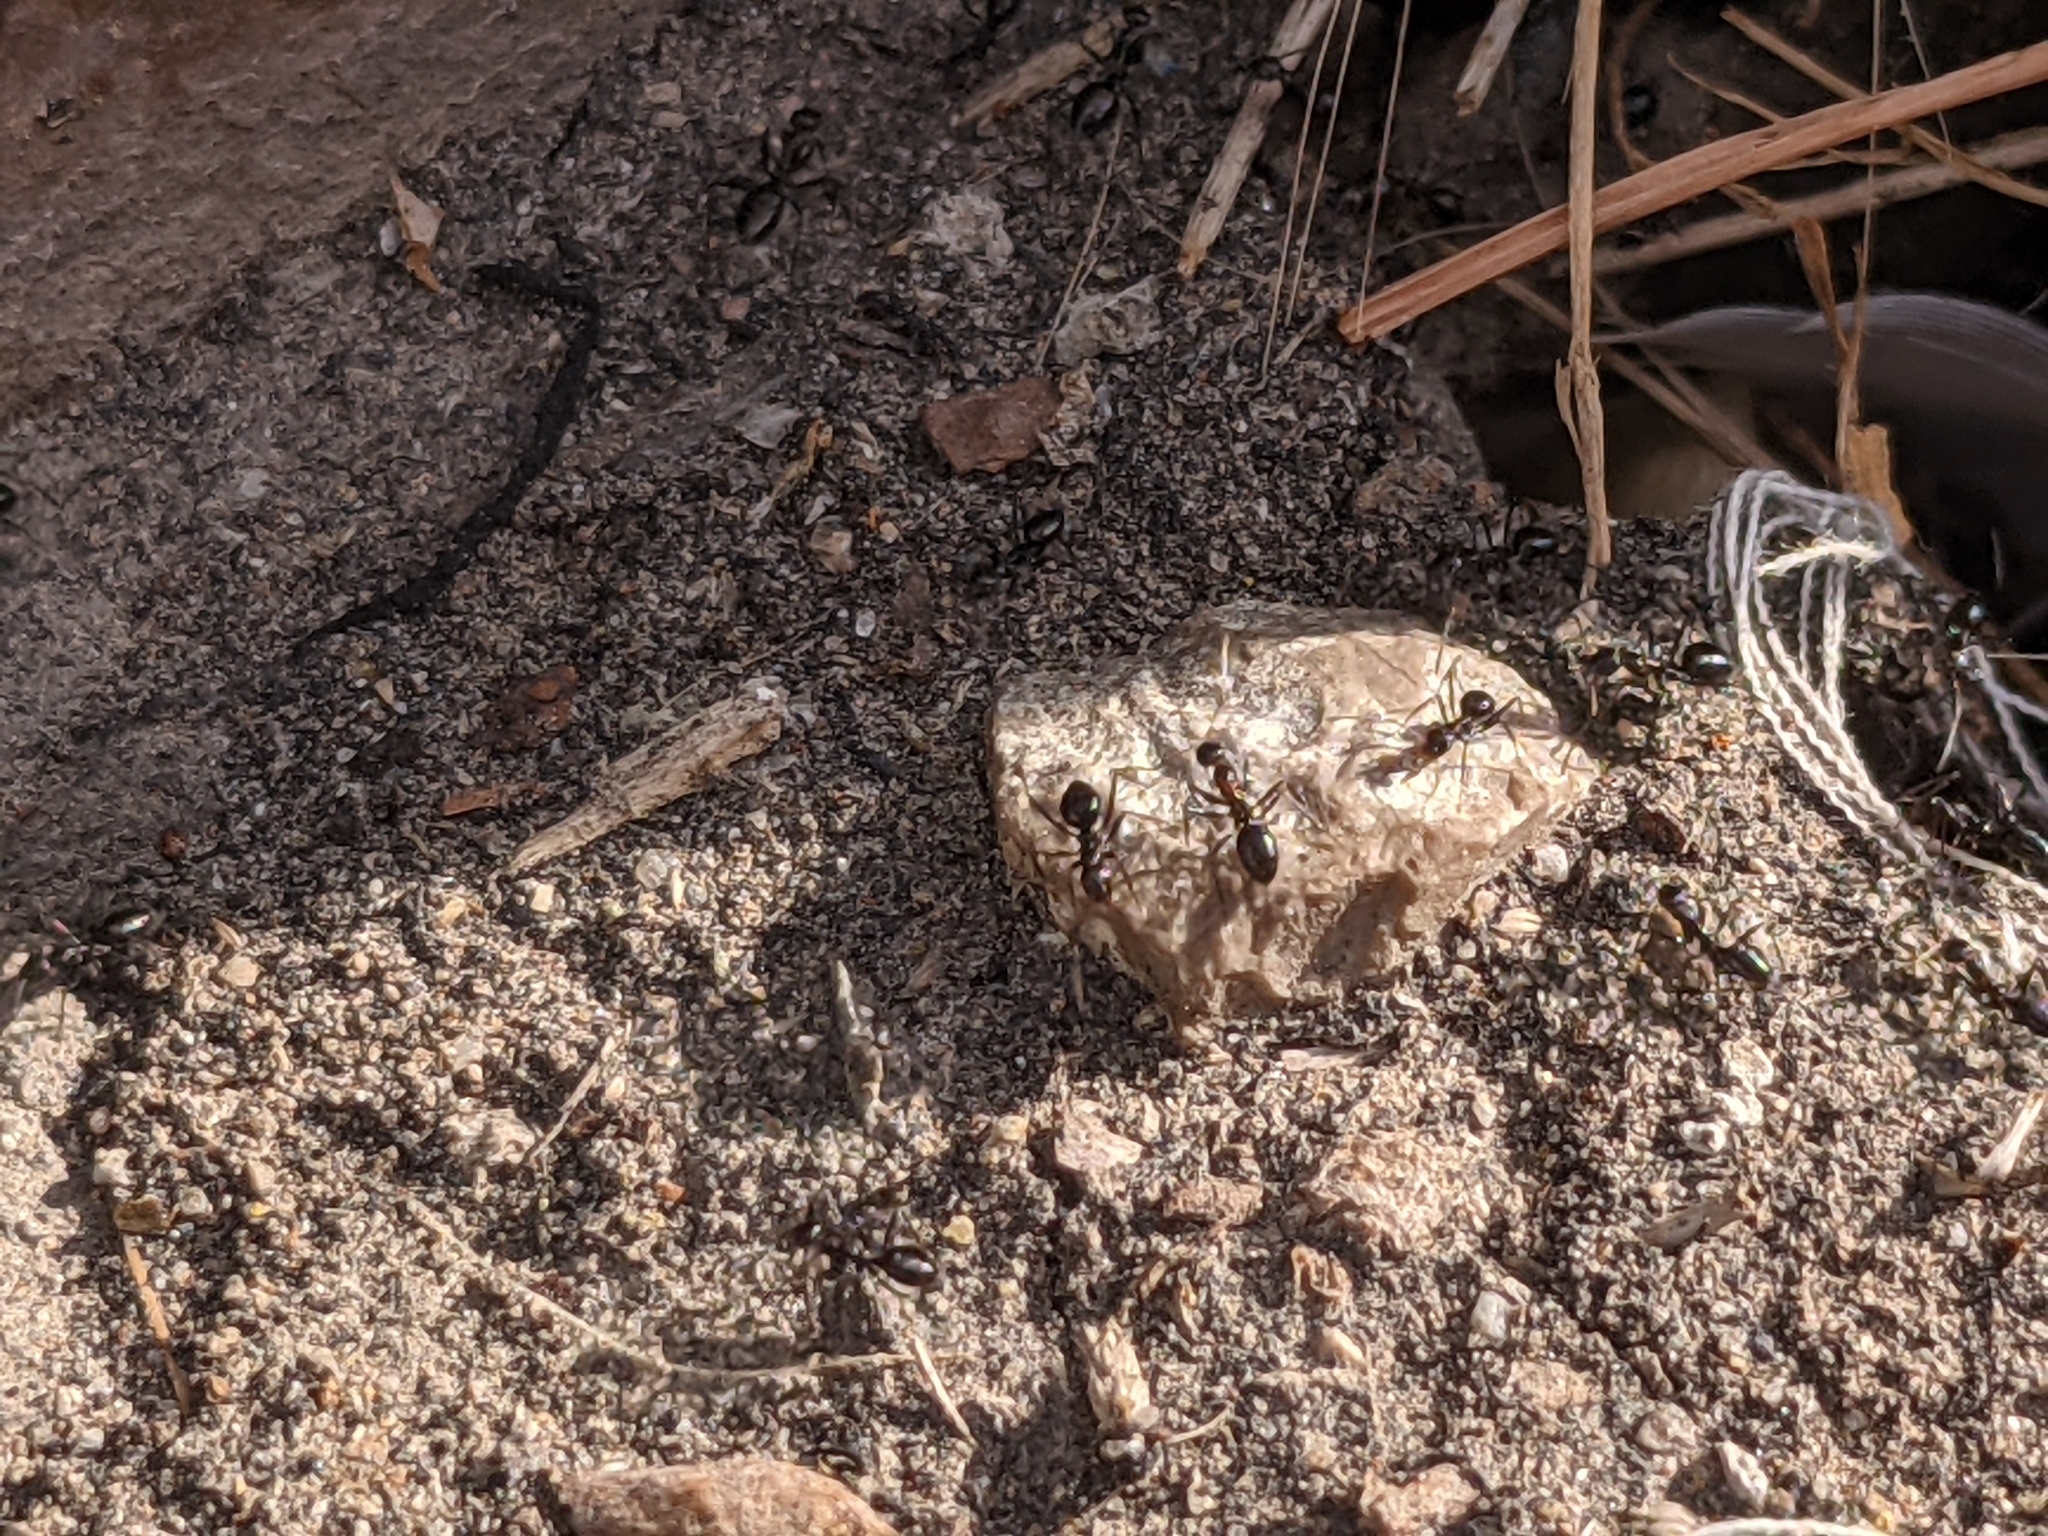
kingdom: Animalia
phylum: Arthropoda
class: Insecta
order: Hymenoptera
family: Formicidae
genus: Lepisiota
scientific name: Lepisiota melas
